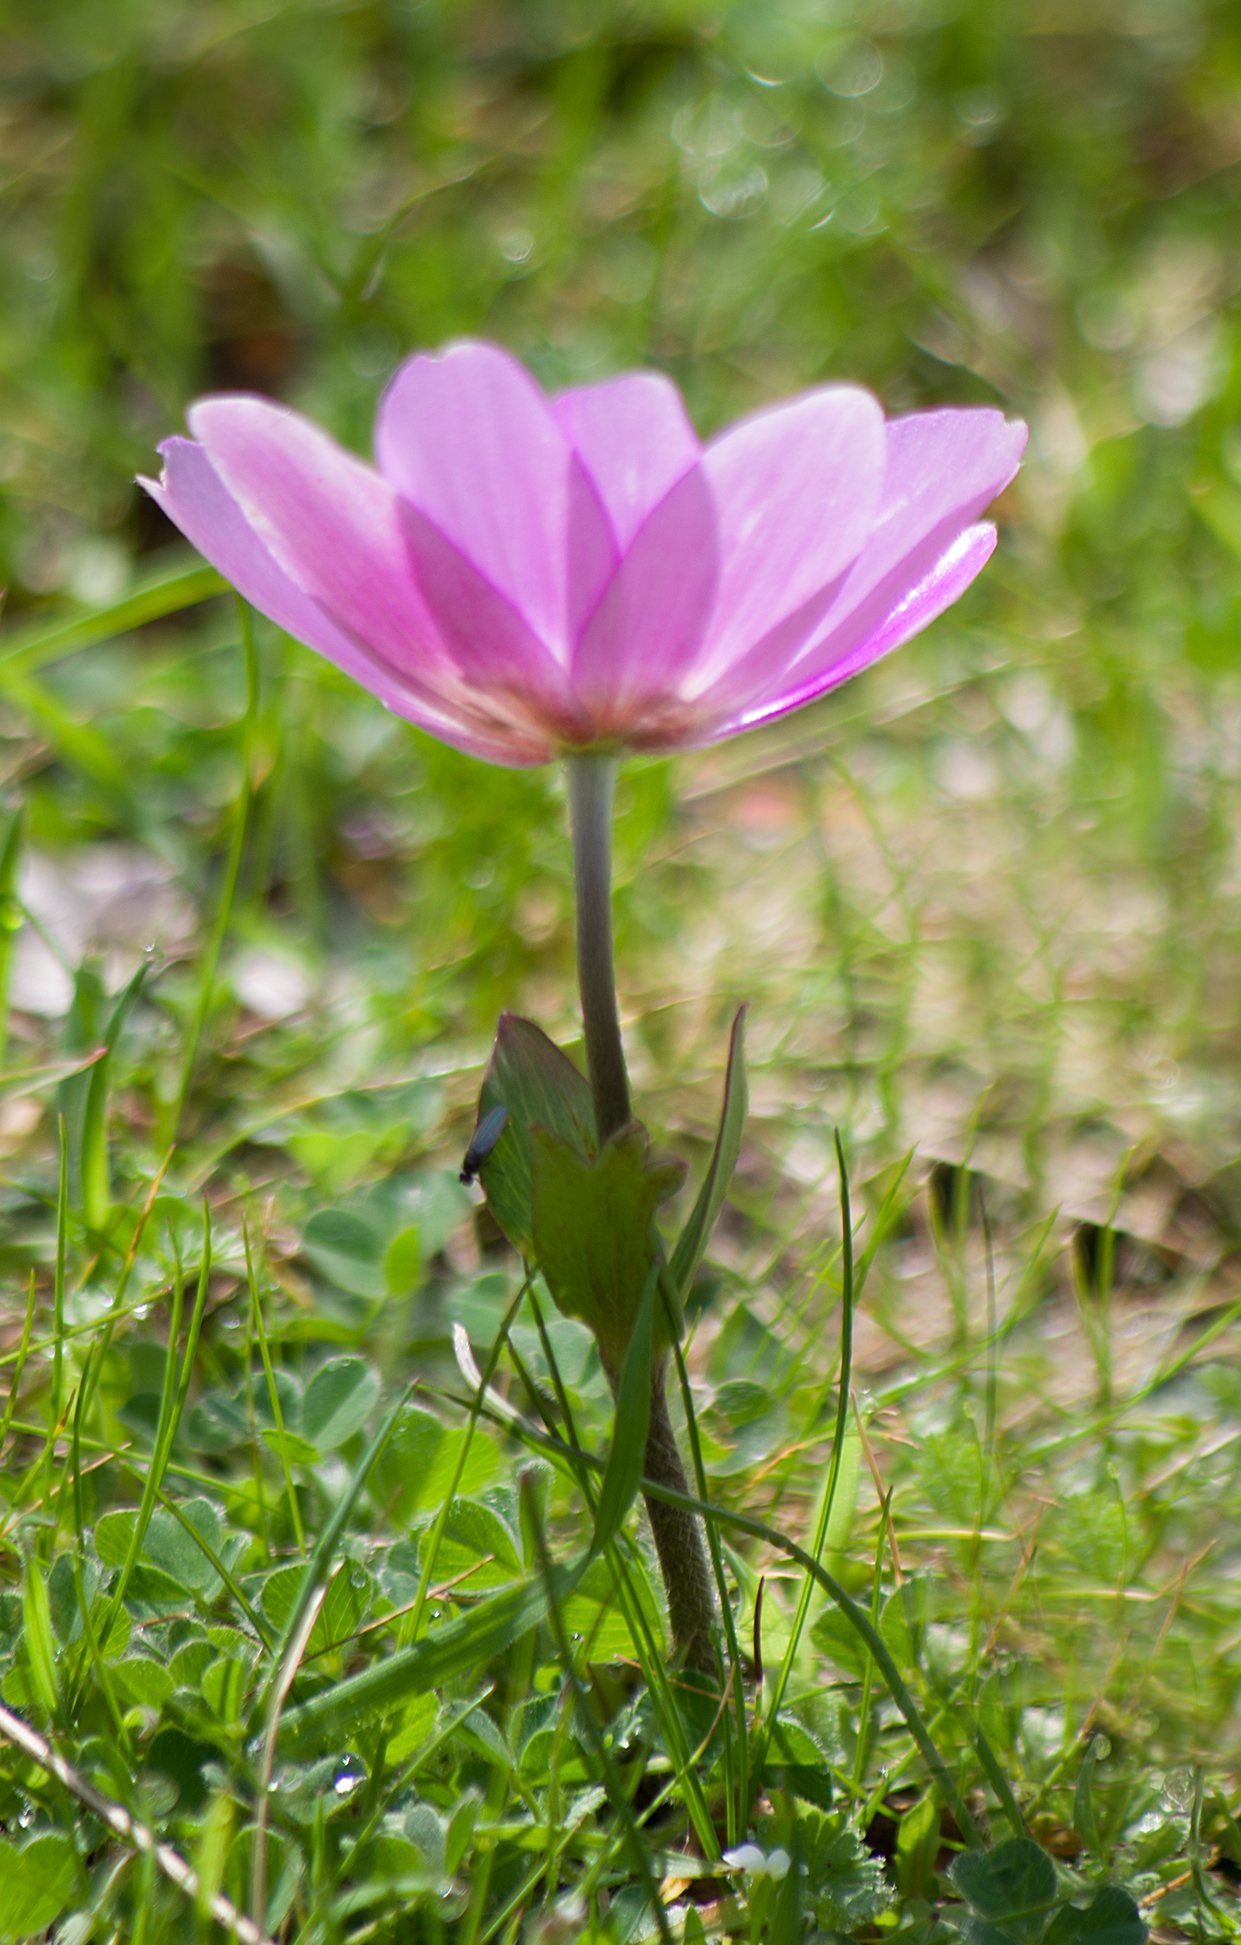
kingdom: Plantae
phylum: Tracheophyta
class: Magnoliopsida
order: Ranunculales
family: Ranunculaceae
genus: Anemone
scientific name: Anemone pavonina
